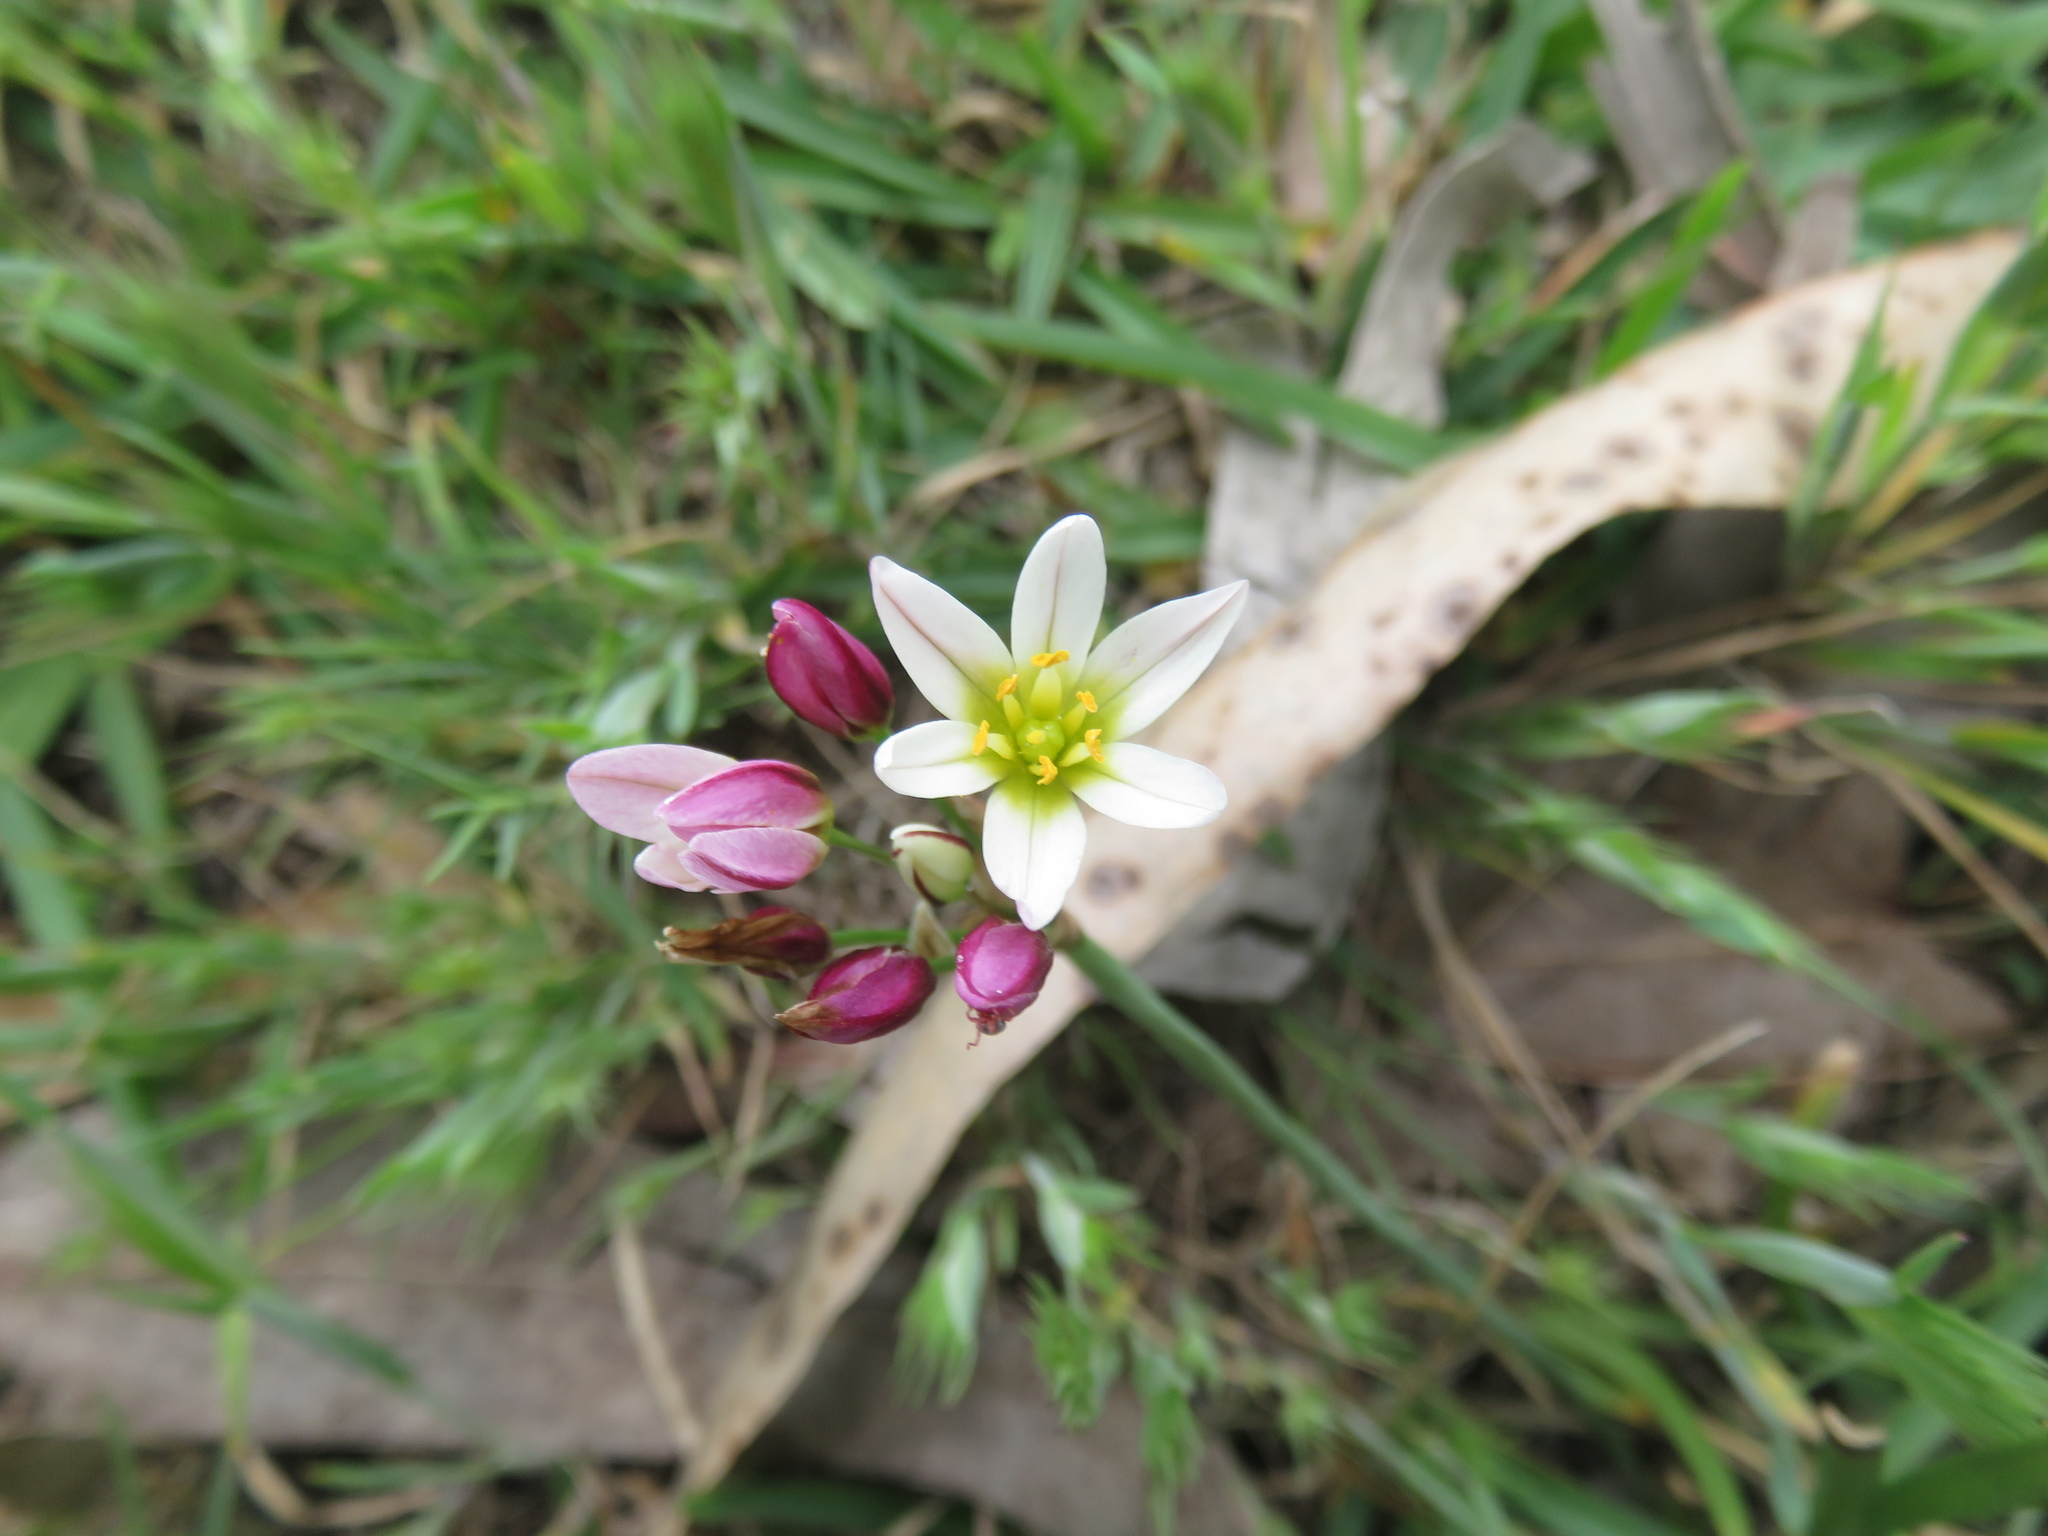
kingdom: Plantae
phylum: Tracheophyta
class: Liliopsida
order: Asparagales
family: Amaryllidaceae
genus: Nothoscordum
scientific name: Nothoscordum bivalve
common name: Crow-poison
